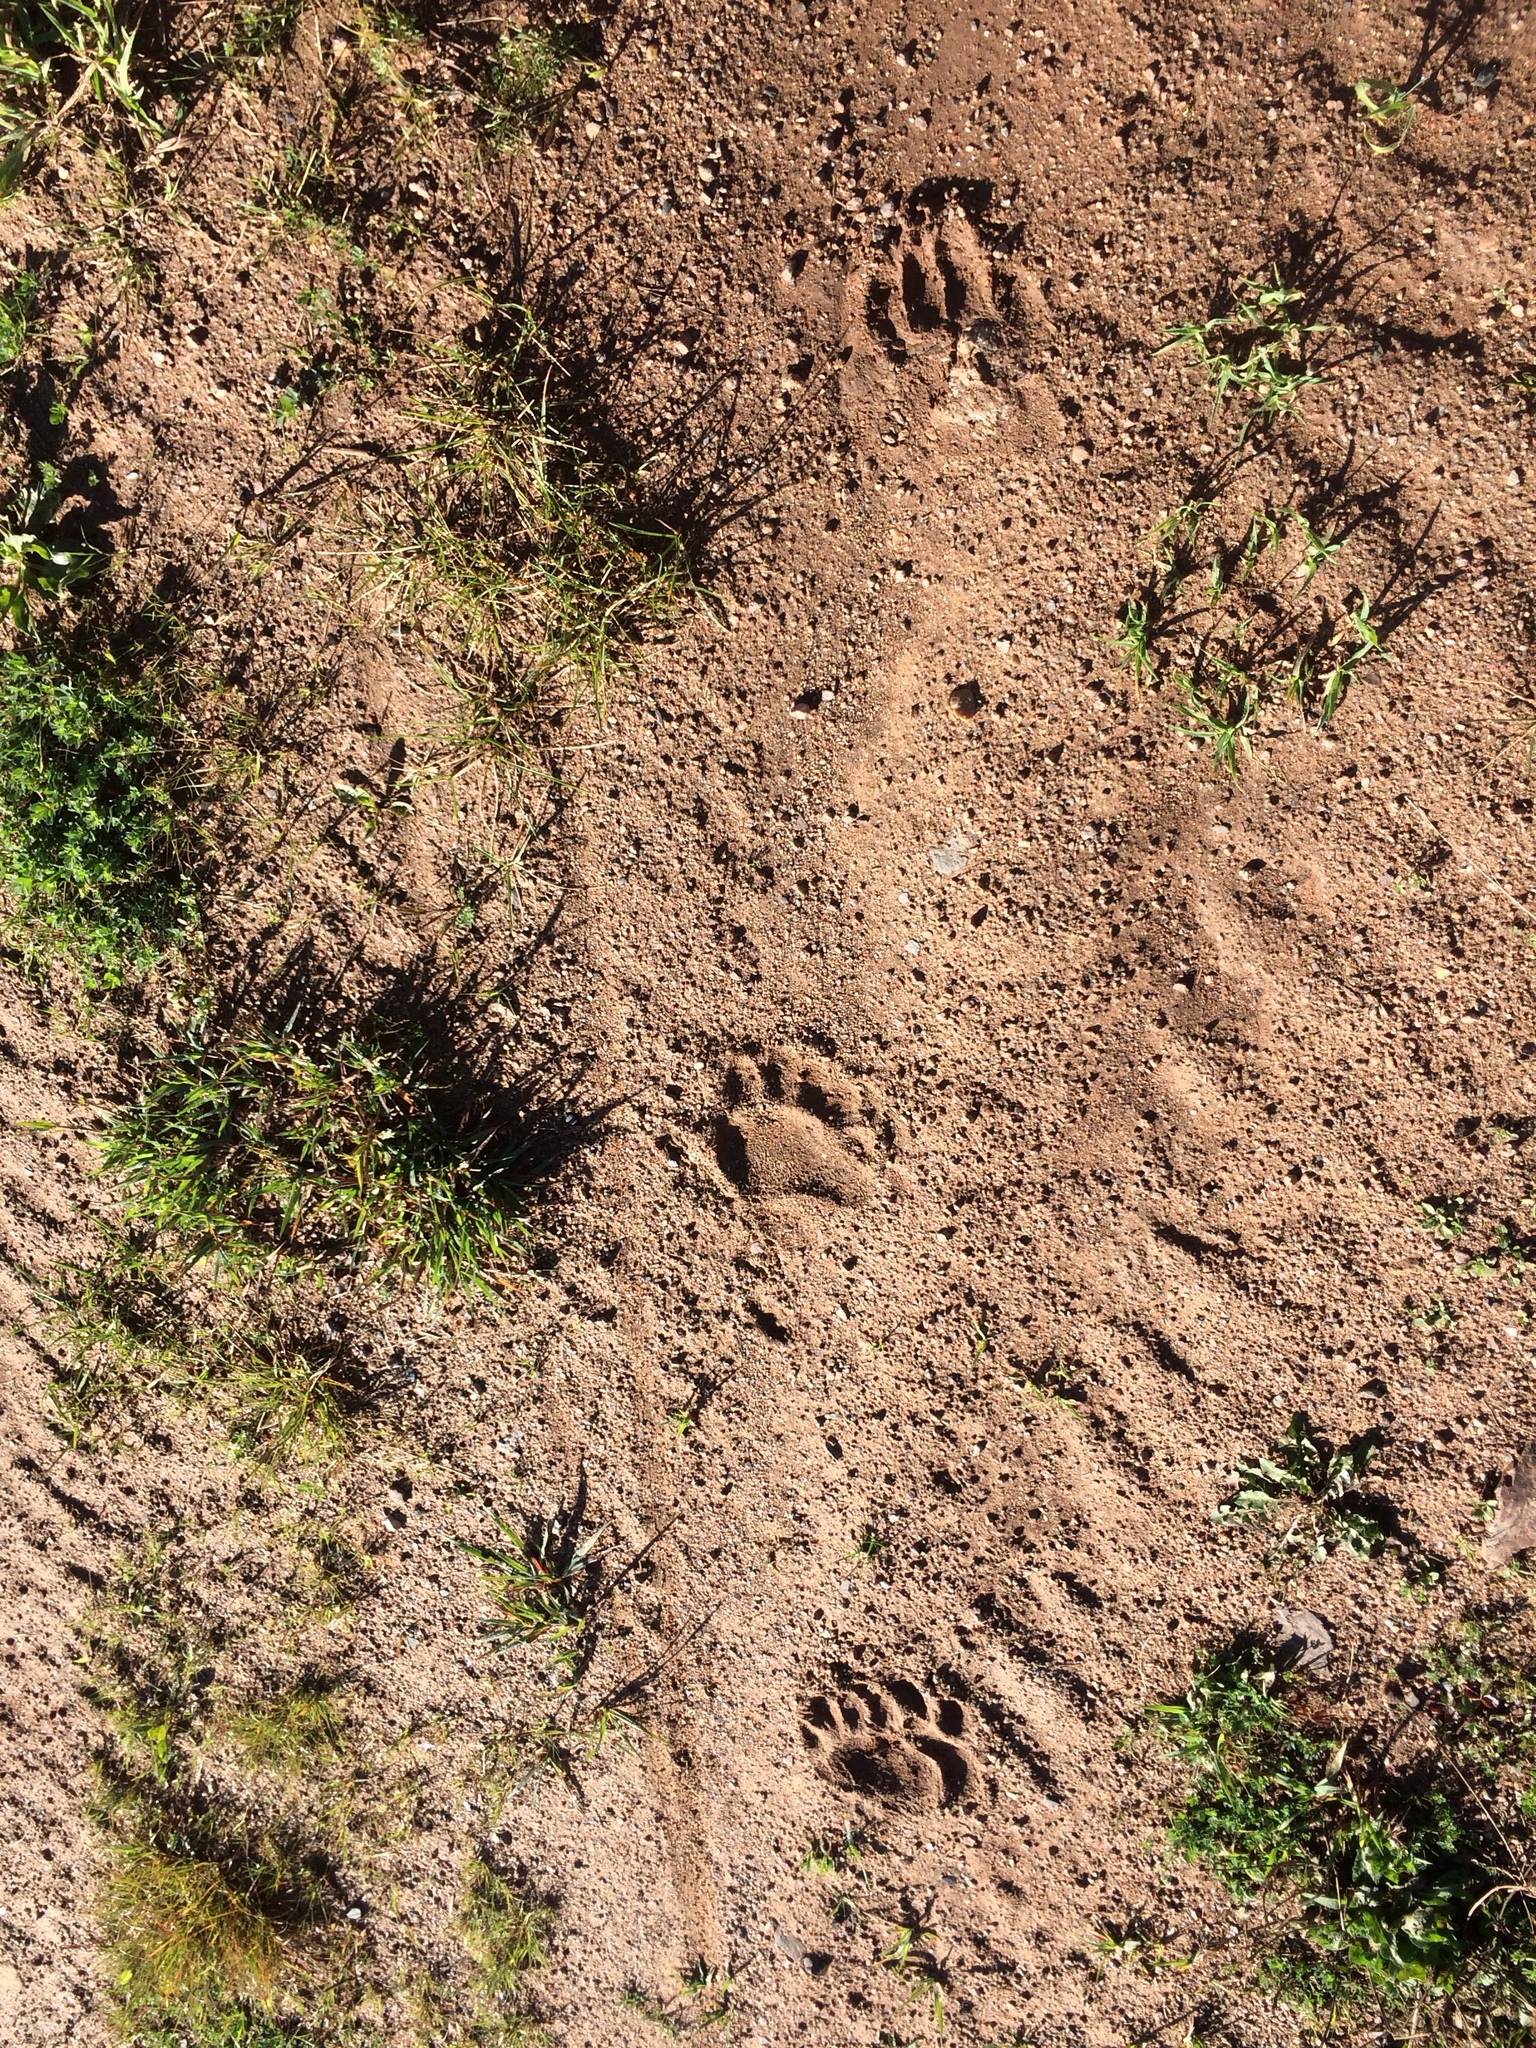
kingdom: Animalia
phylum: Chordata
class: Mammalia
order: Carnivora
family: Ursidae
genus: Ursus
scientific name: Ursus americanus
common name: American black bear
